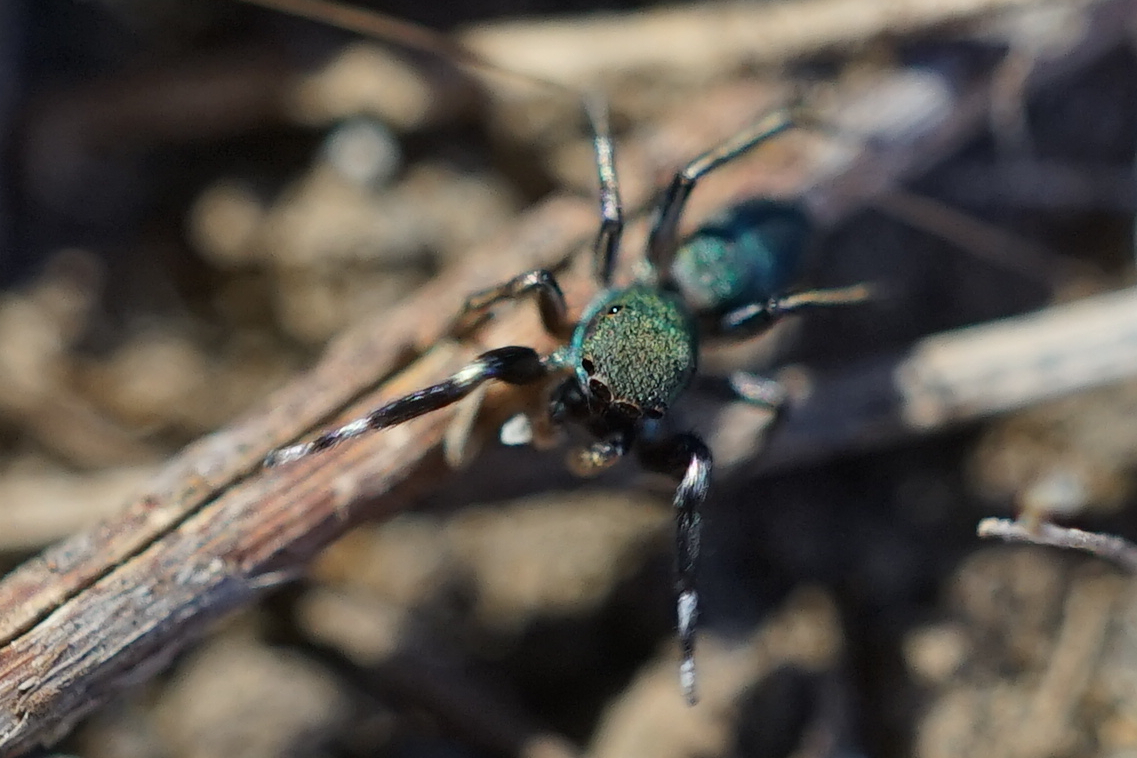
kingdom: Animalia
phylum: Arthropoda
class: Arachnida
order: Araneae
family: Salticidae
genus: Siler
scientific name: Siler cupreus
